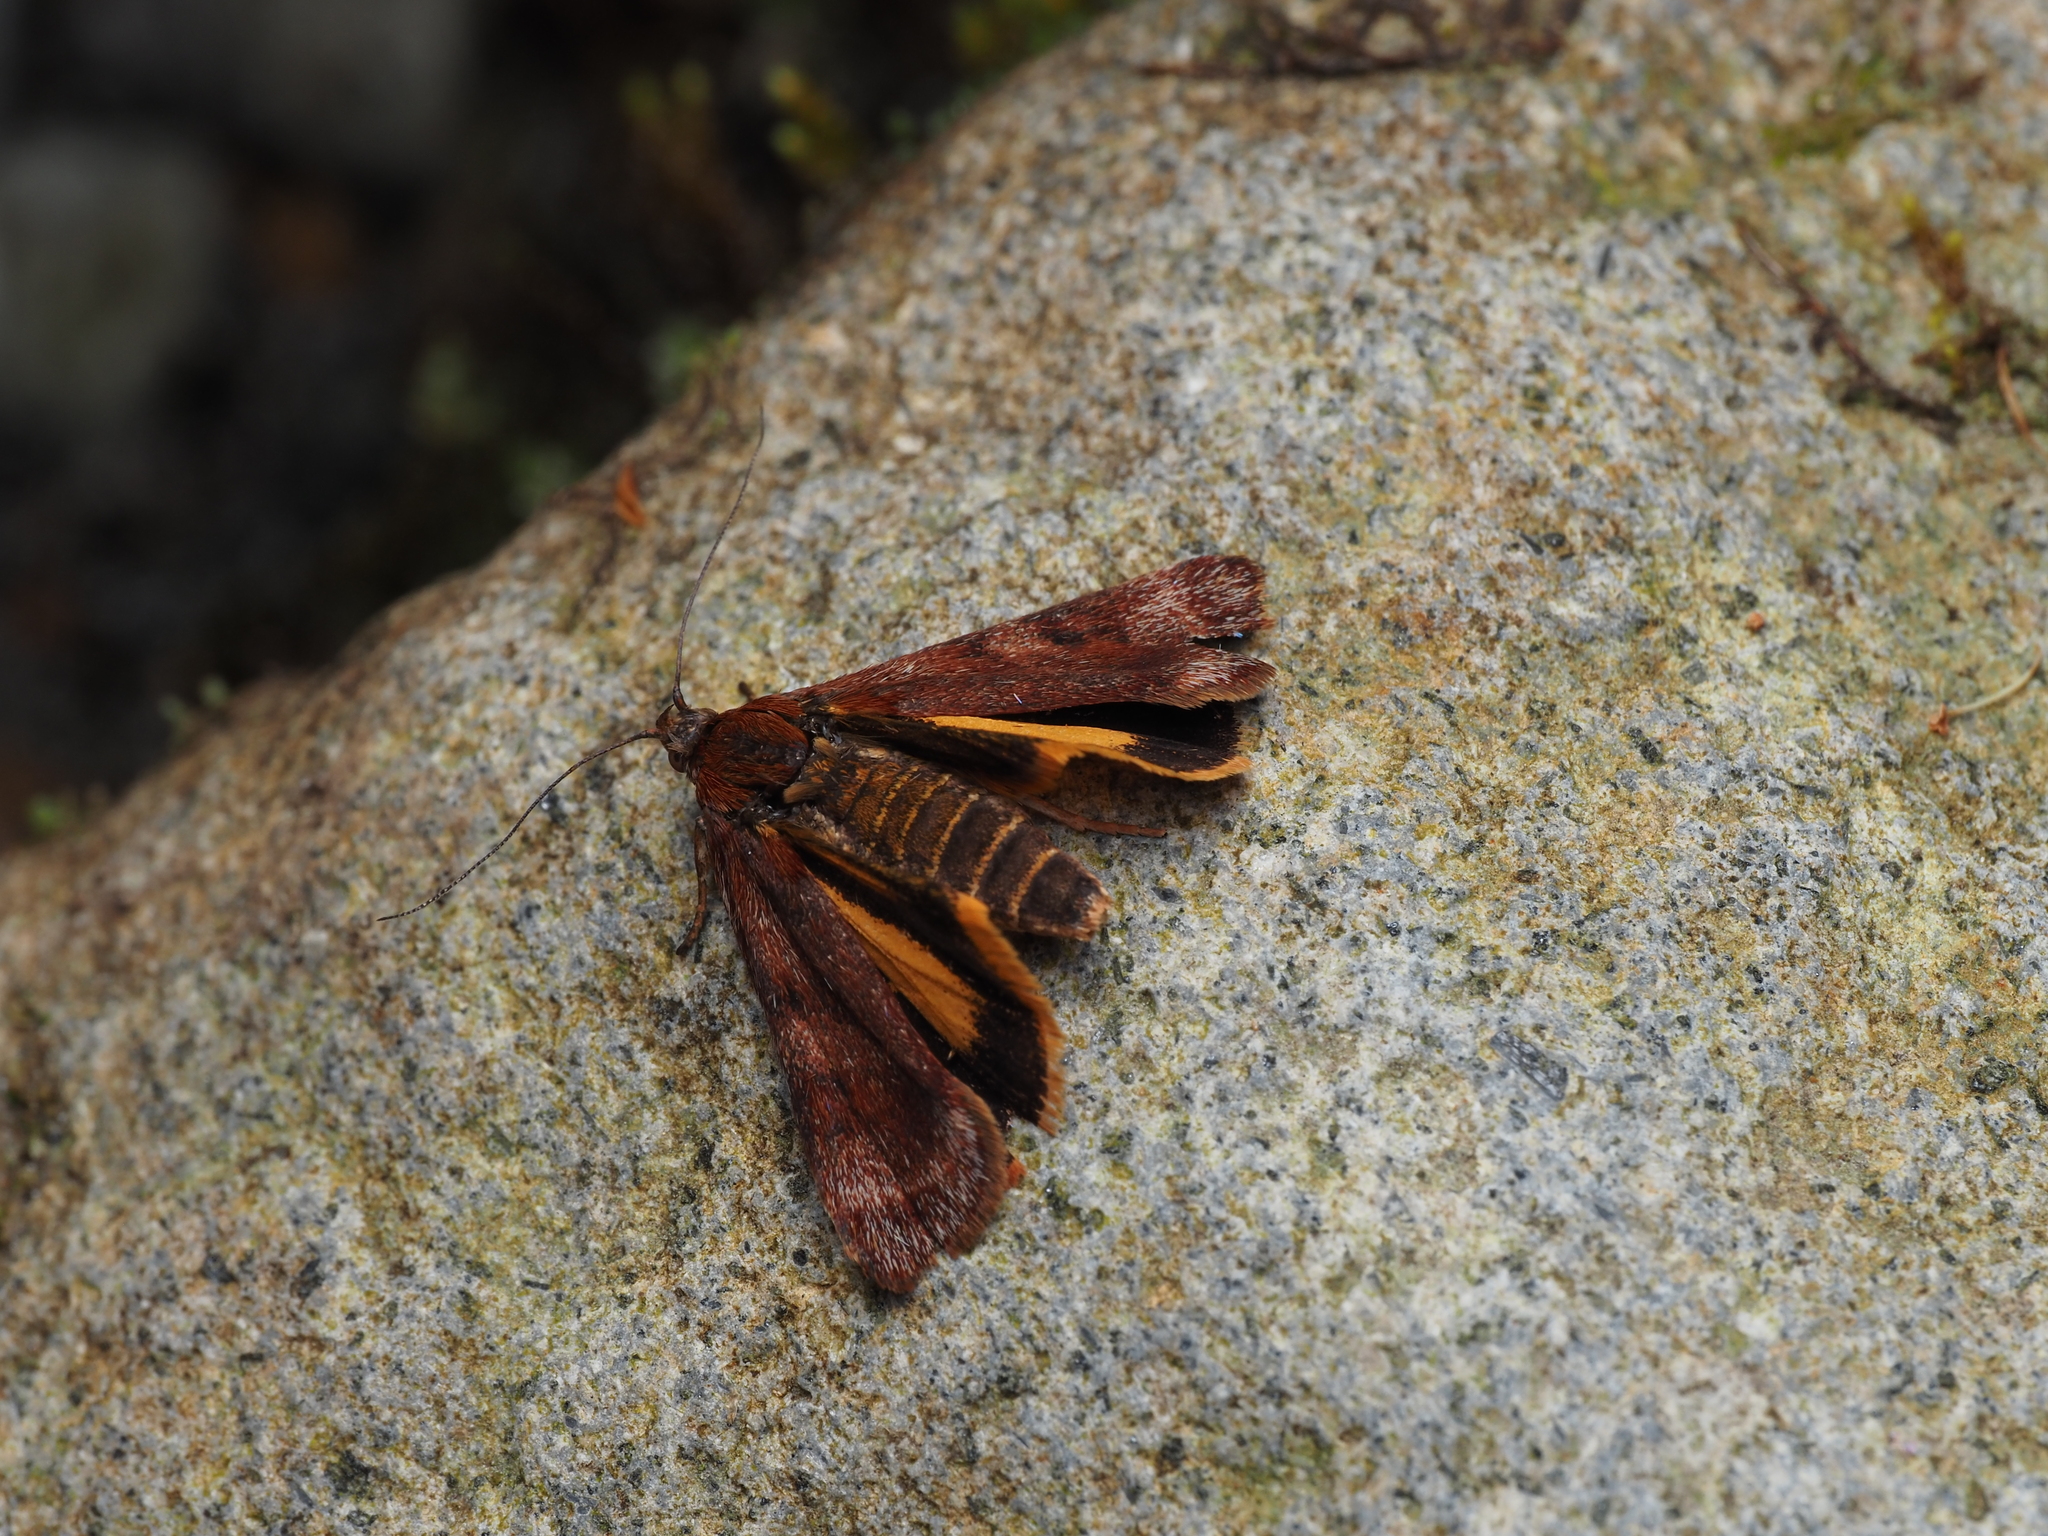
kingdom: Animalia
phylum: Arthropoda
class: Insecta
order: Lepidoptera
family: Oecophoridae
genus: Hierodoris
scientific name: Hierodoris
